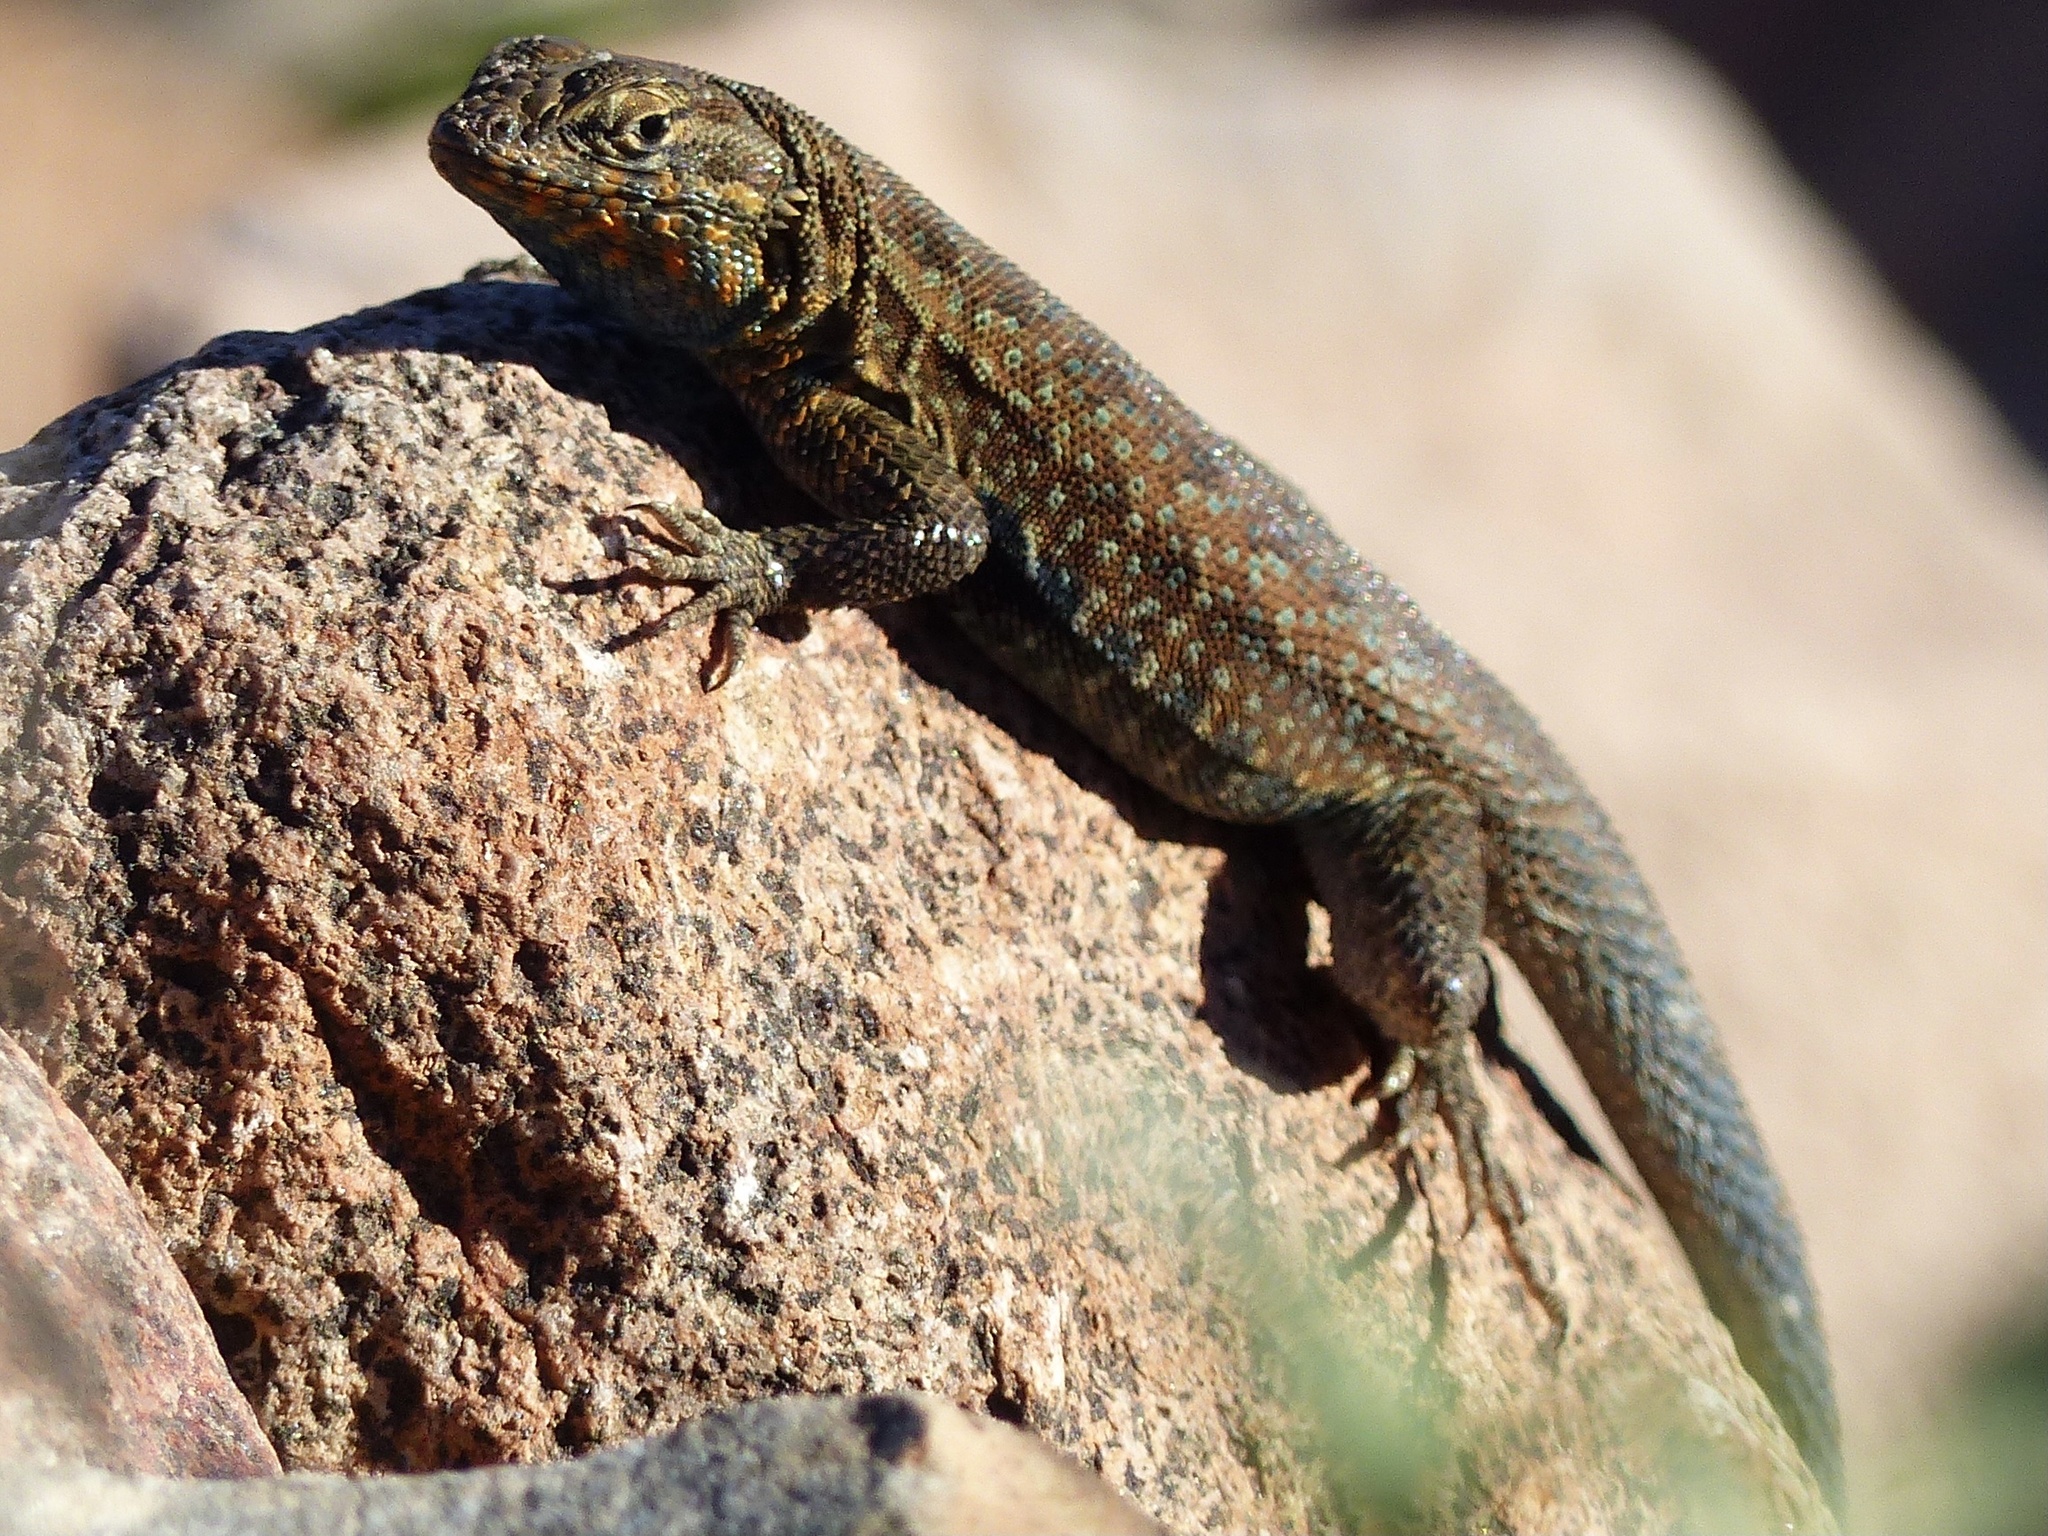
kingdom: Animalia
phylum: Chordata
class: Squamata
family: Phrynosomatidae
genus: Uta
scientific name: Uta stansburiana
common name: Side-blotched lizard
